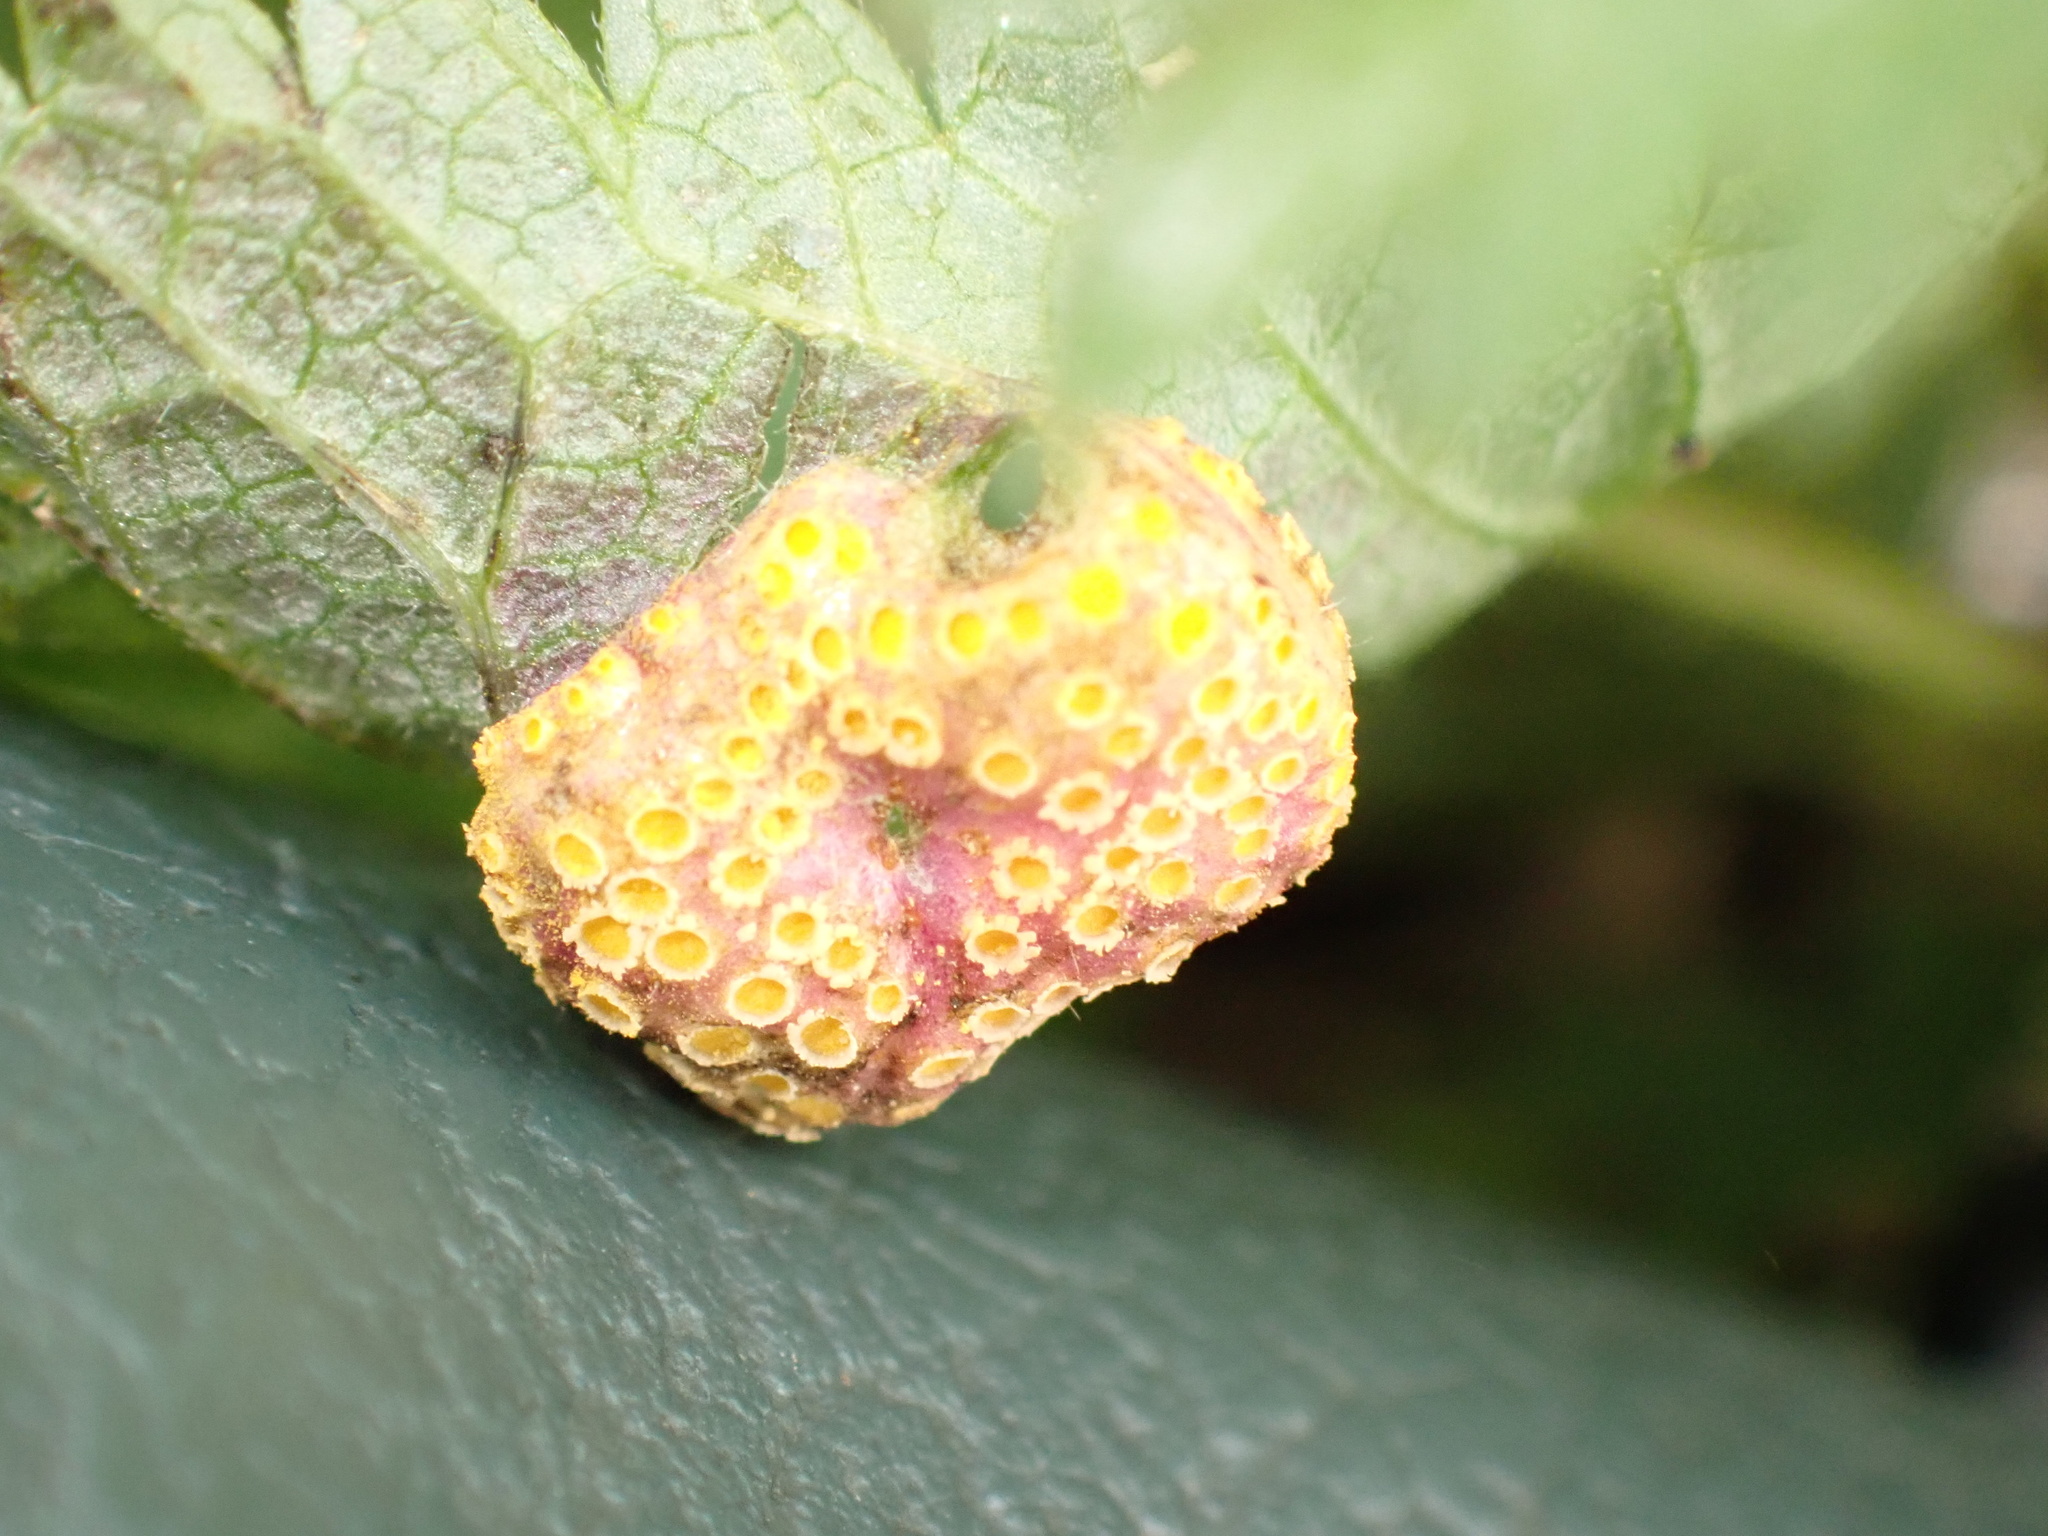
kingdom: Fungi
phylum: Basidiomycota
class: Pucciniomycetes
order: Pucciniales
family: Pucciniaceae
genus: Puccinia
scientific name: Puccinia urticata
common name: Nettle clustercup rust fungus
